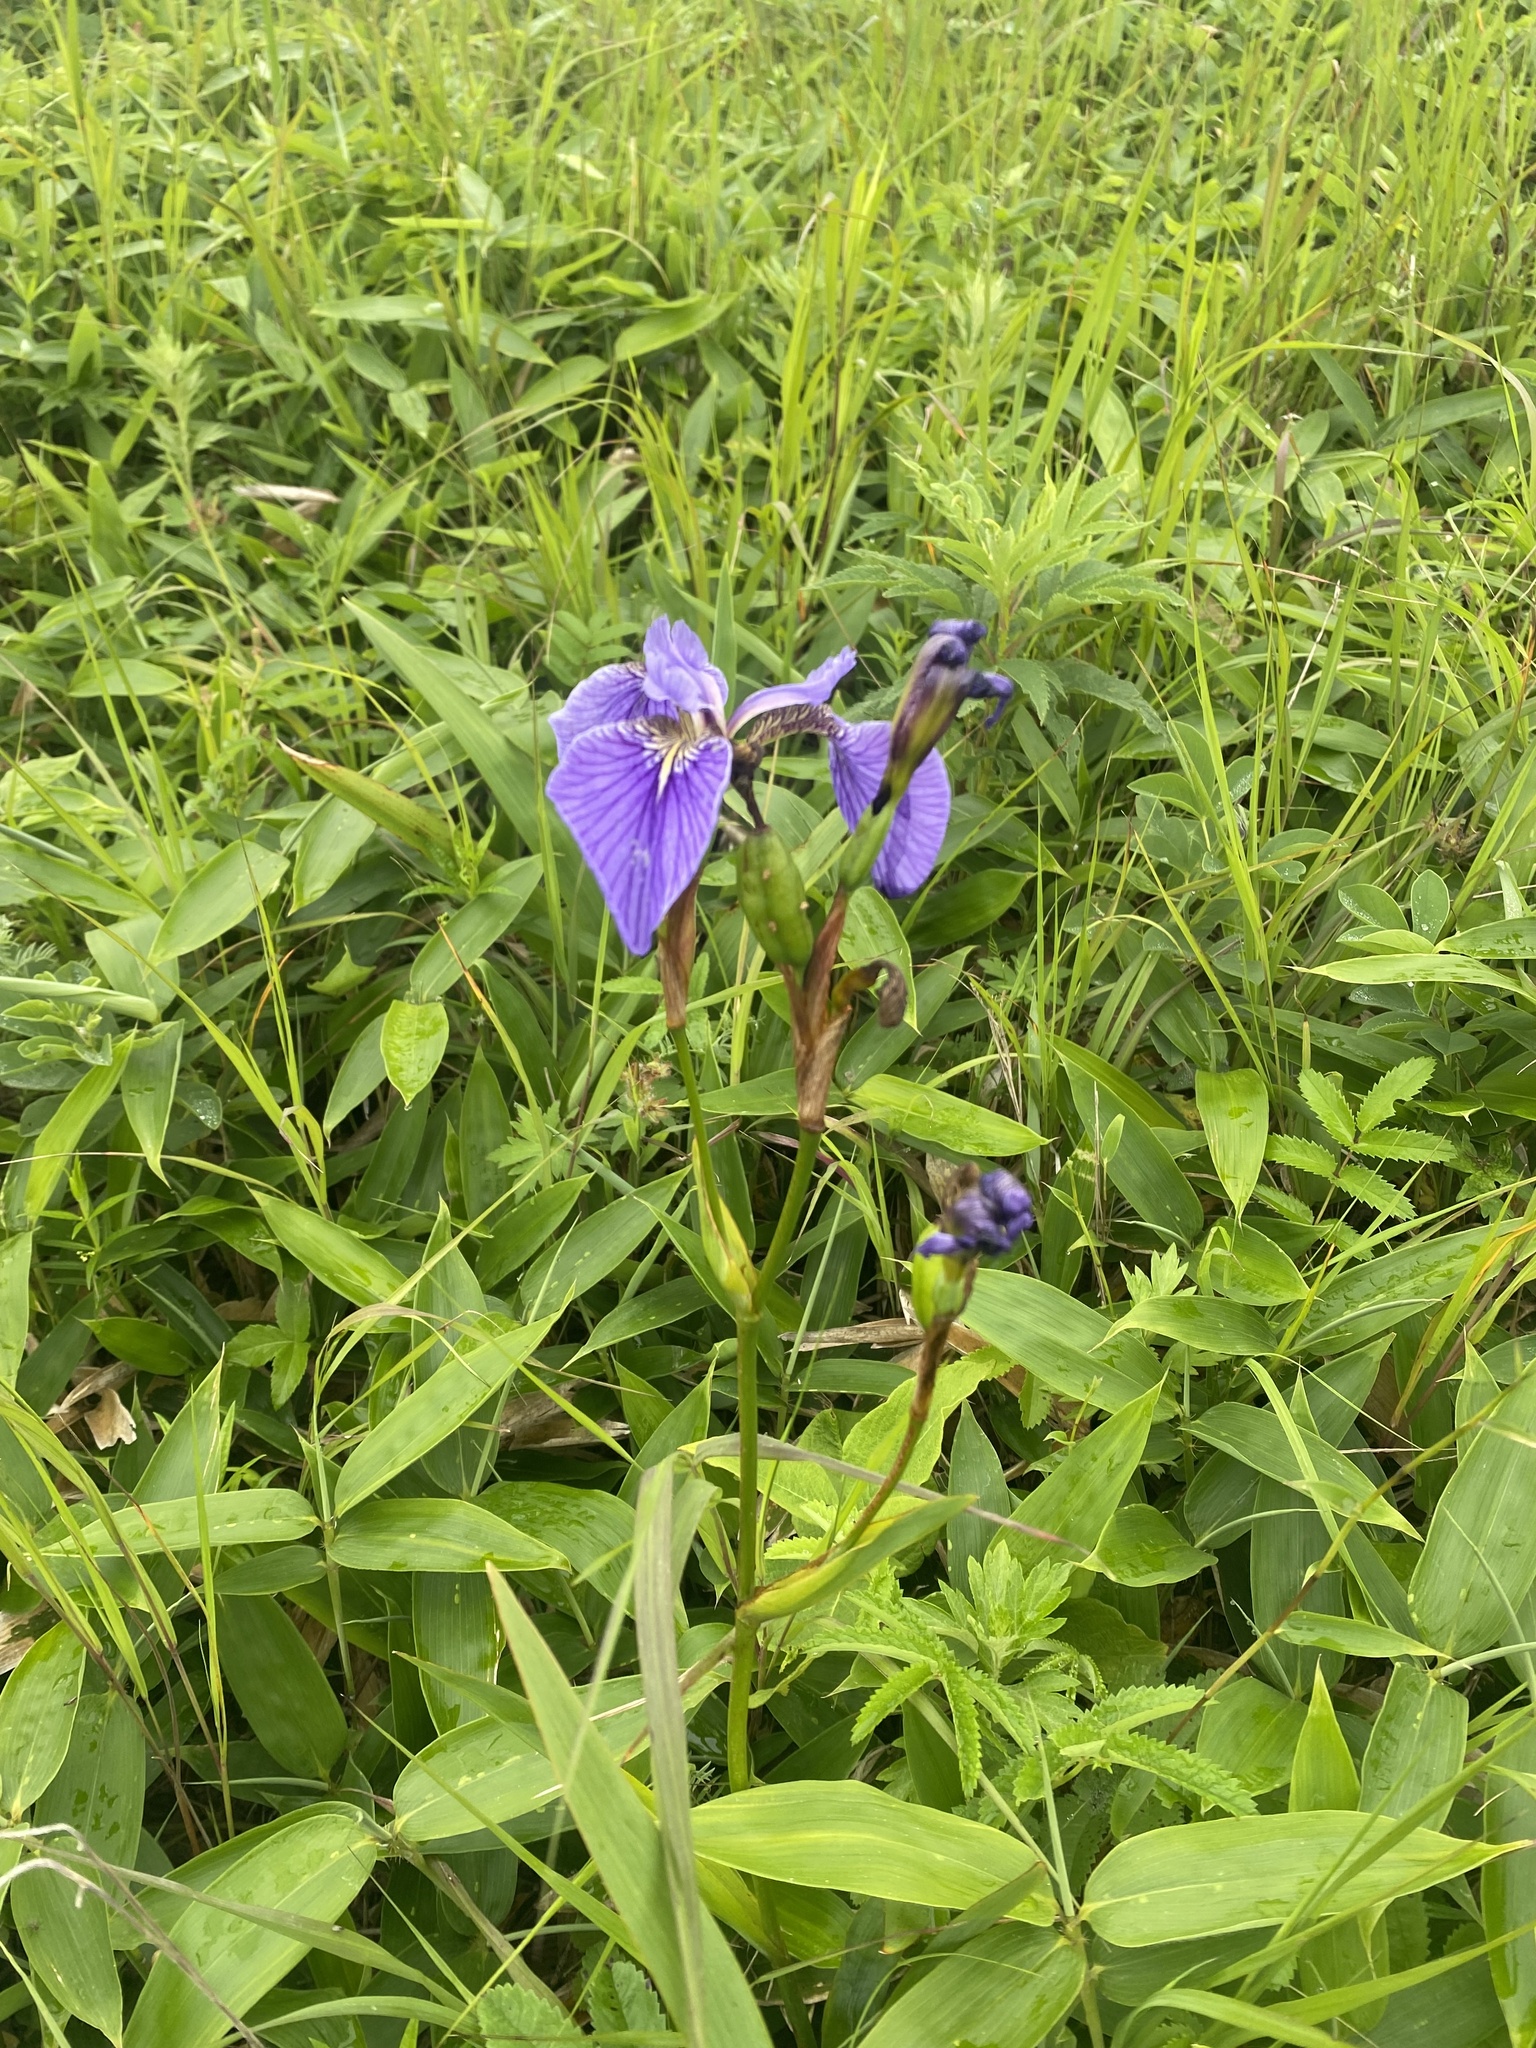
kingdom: Plantae
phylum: Tracheophyta
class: Liliopsida
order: Asparagales
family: Iridaceae
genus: Iris
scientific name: Iris setosa
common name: Arctic blue flag
